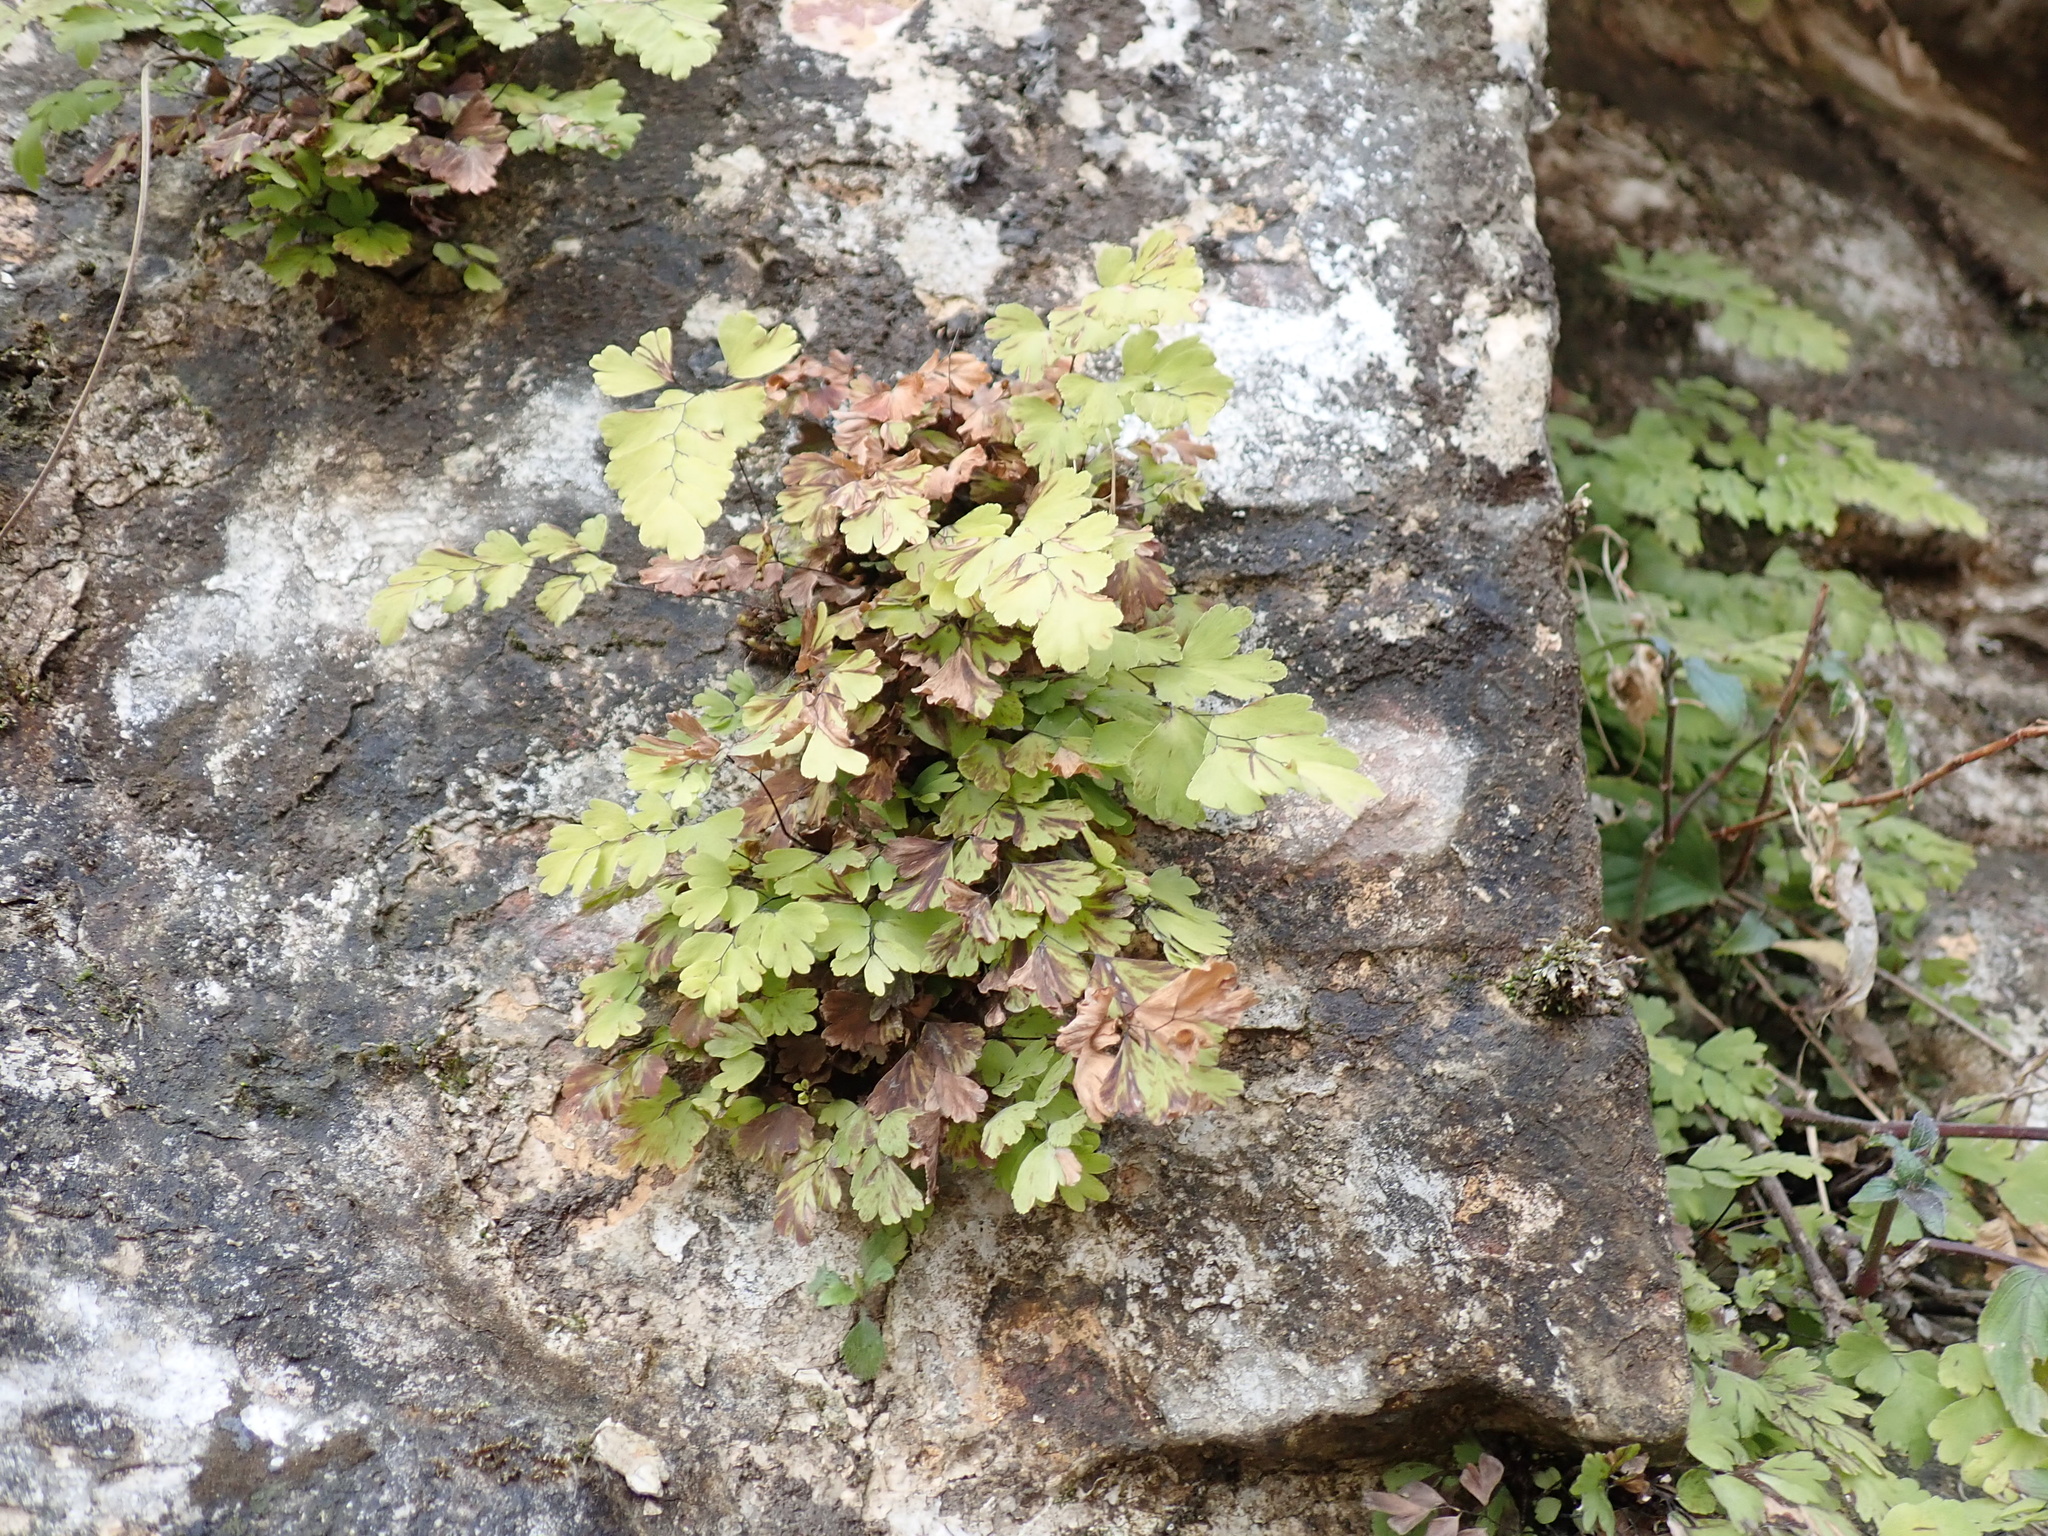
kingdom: Plantae
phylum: Tracheophyta
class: Polypodiopsida
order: Polypodiales
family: Pteridaceae
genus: Adiantum
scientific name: Adiantum capillus-veneris
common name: Maidenhair fern
